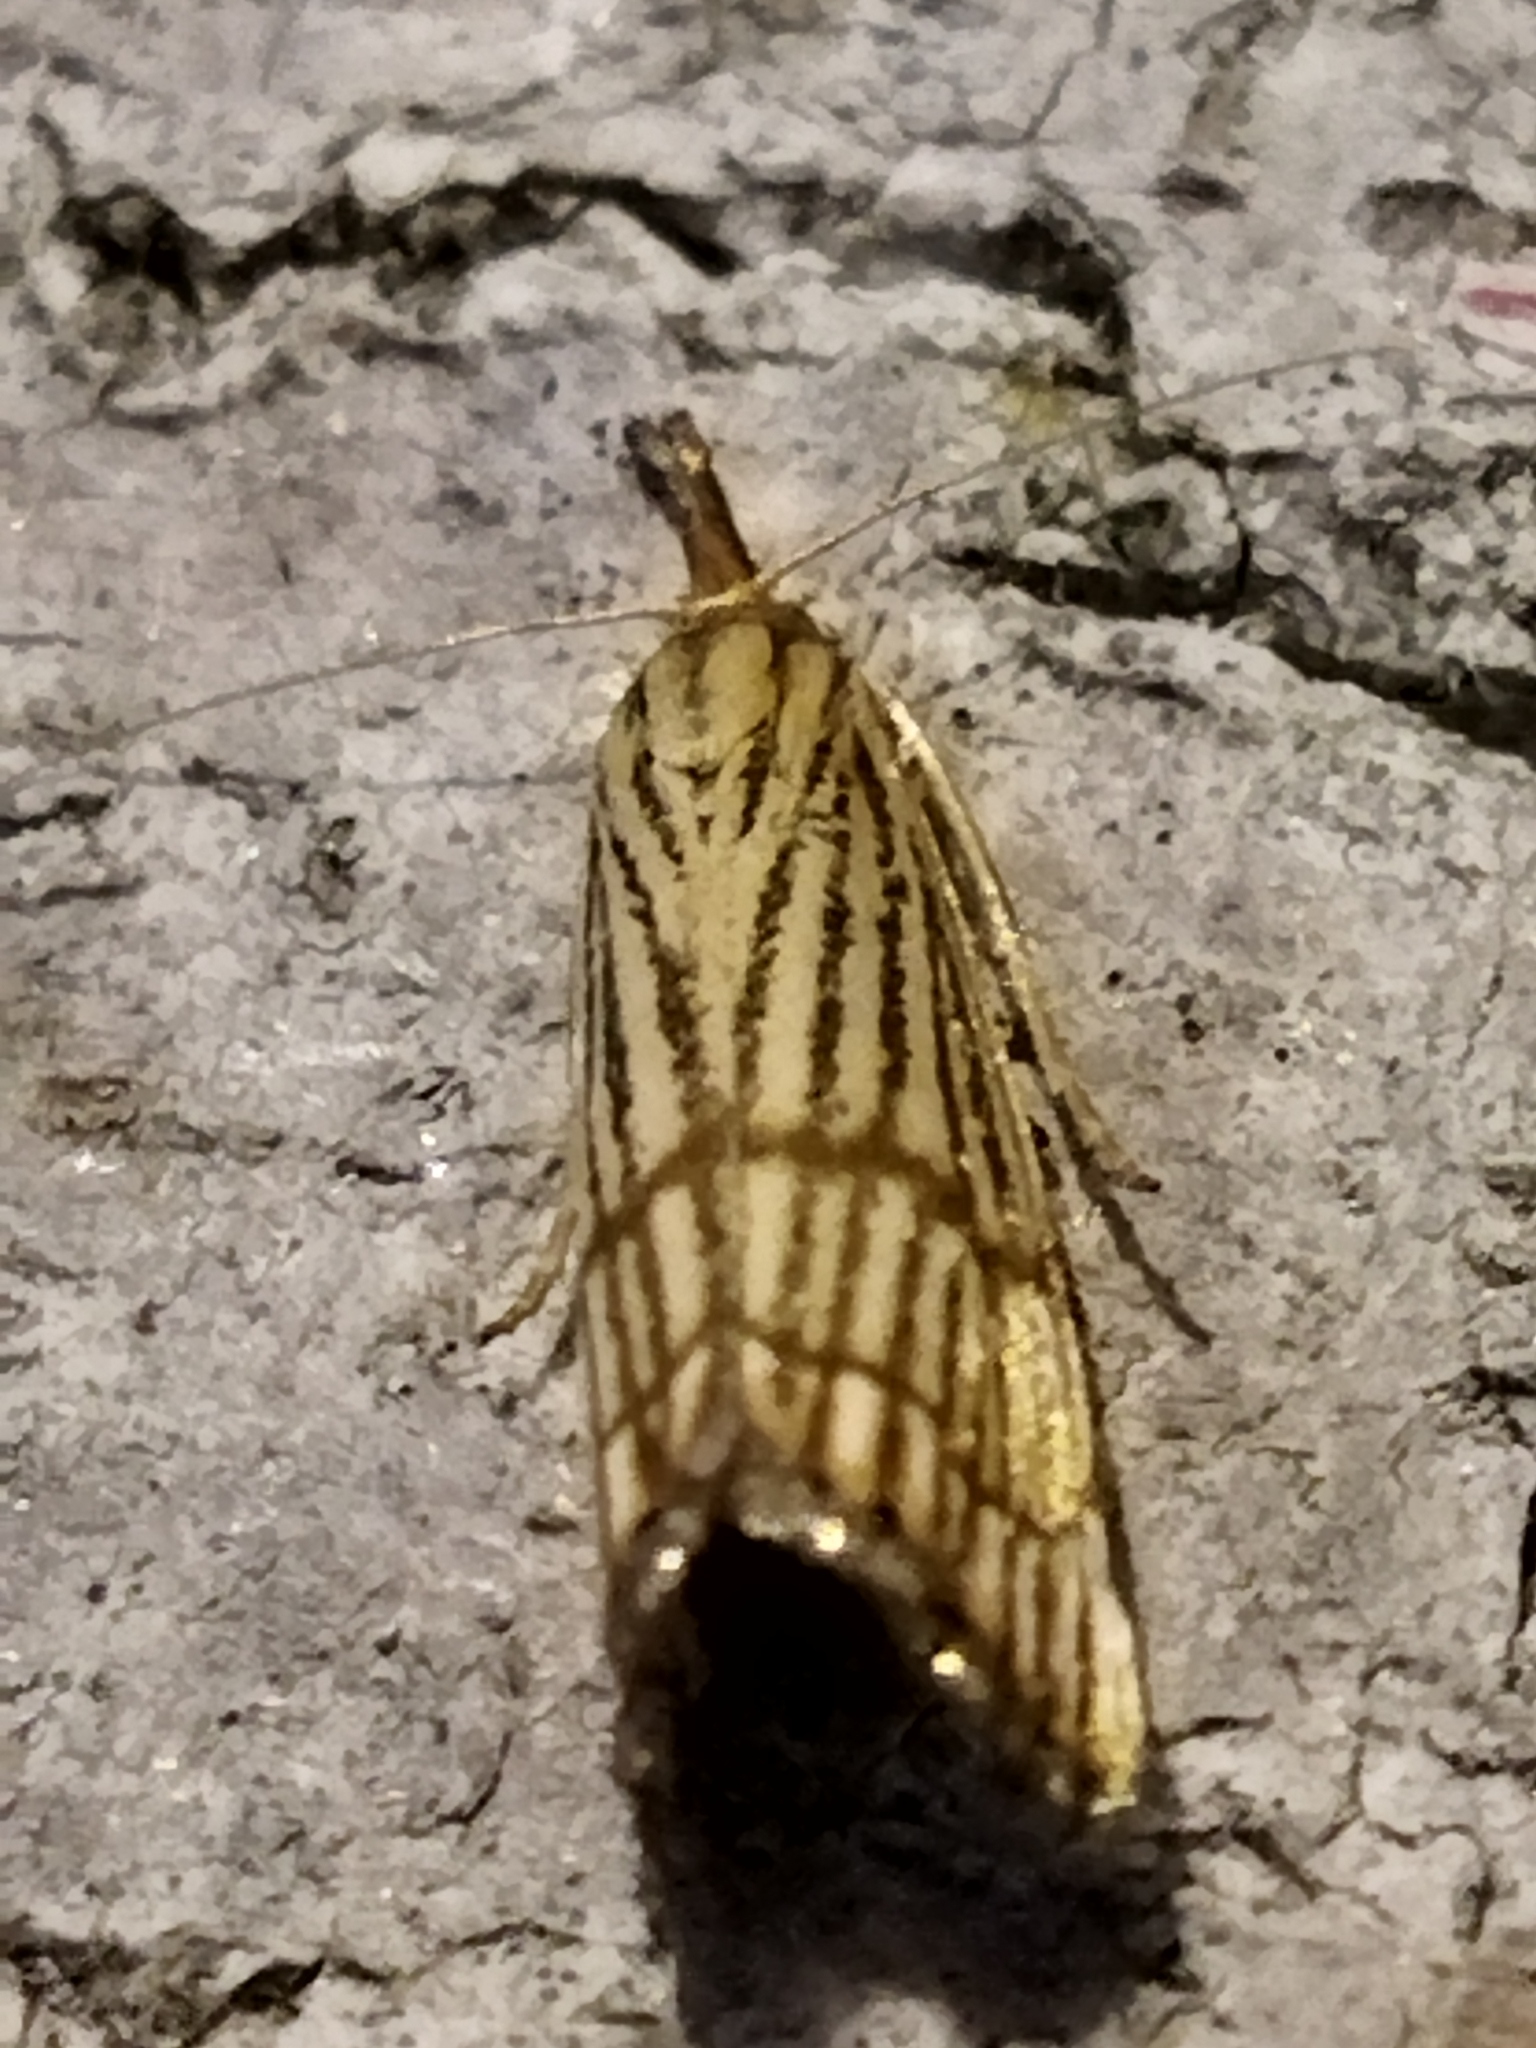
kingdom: Animalia
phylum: Arthropoda
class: Insecta
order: Lepidoptera
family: Crambidae
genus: Chrysocrambus
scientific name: Chrysocrambus linetella
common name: Orange-bar grass-veneer
